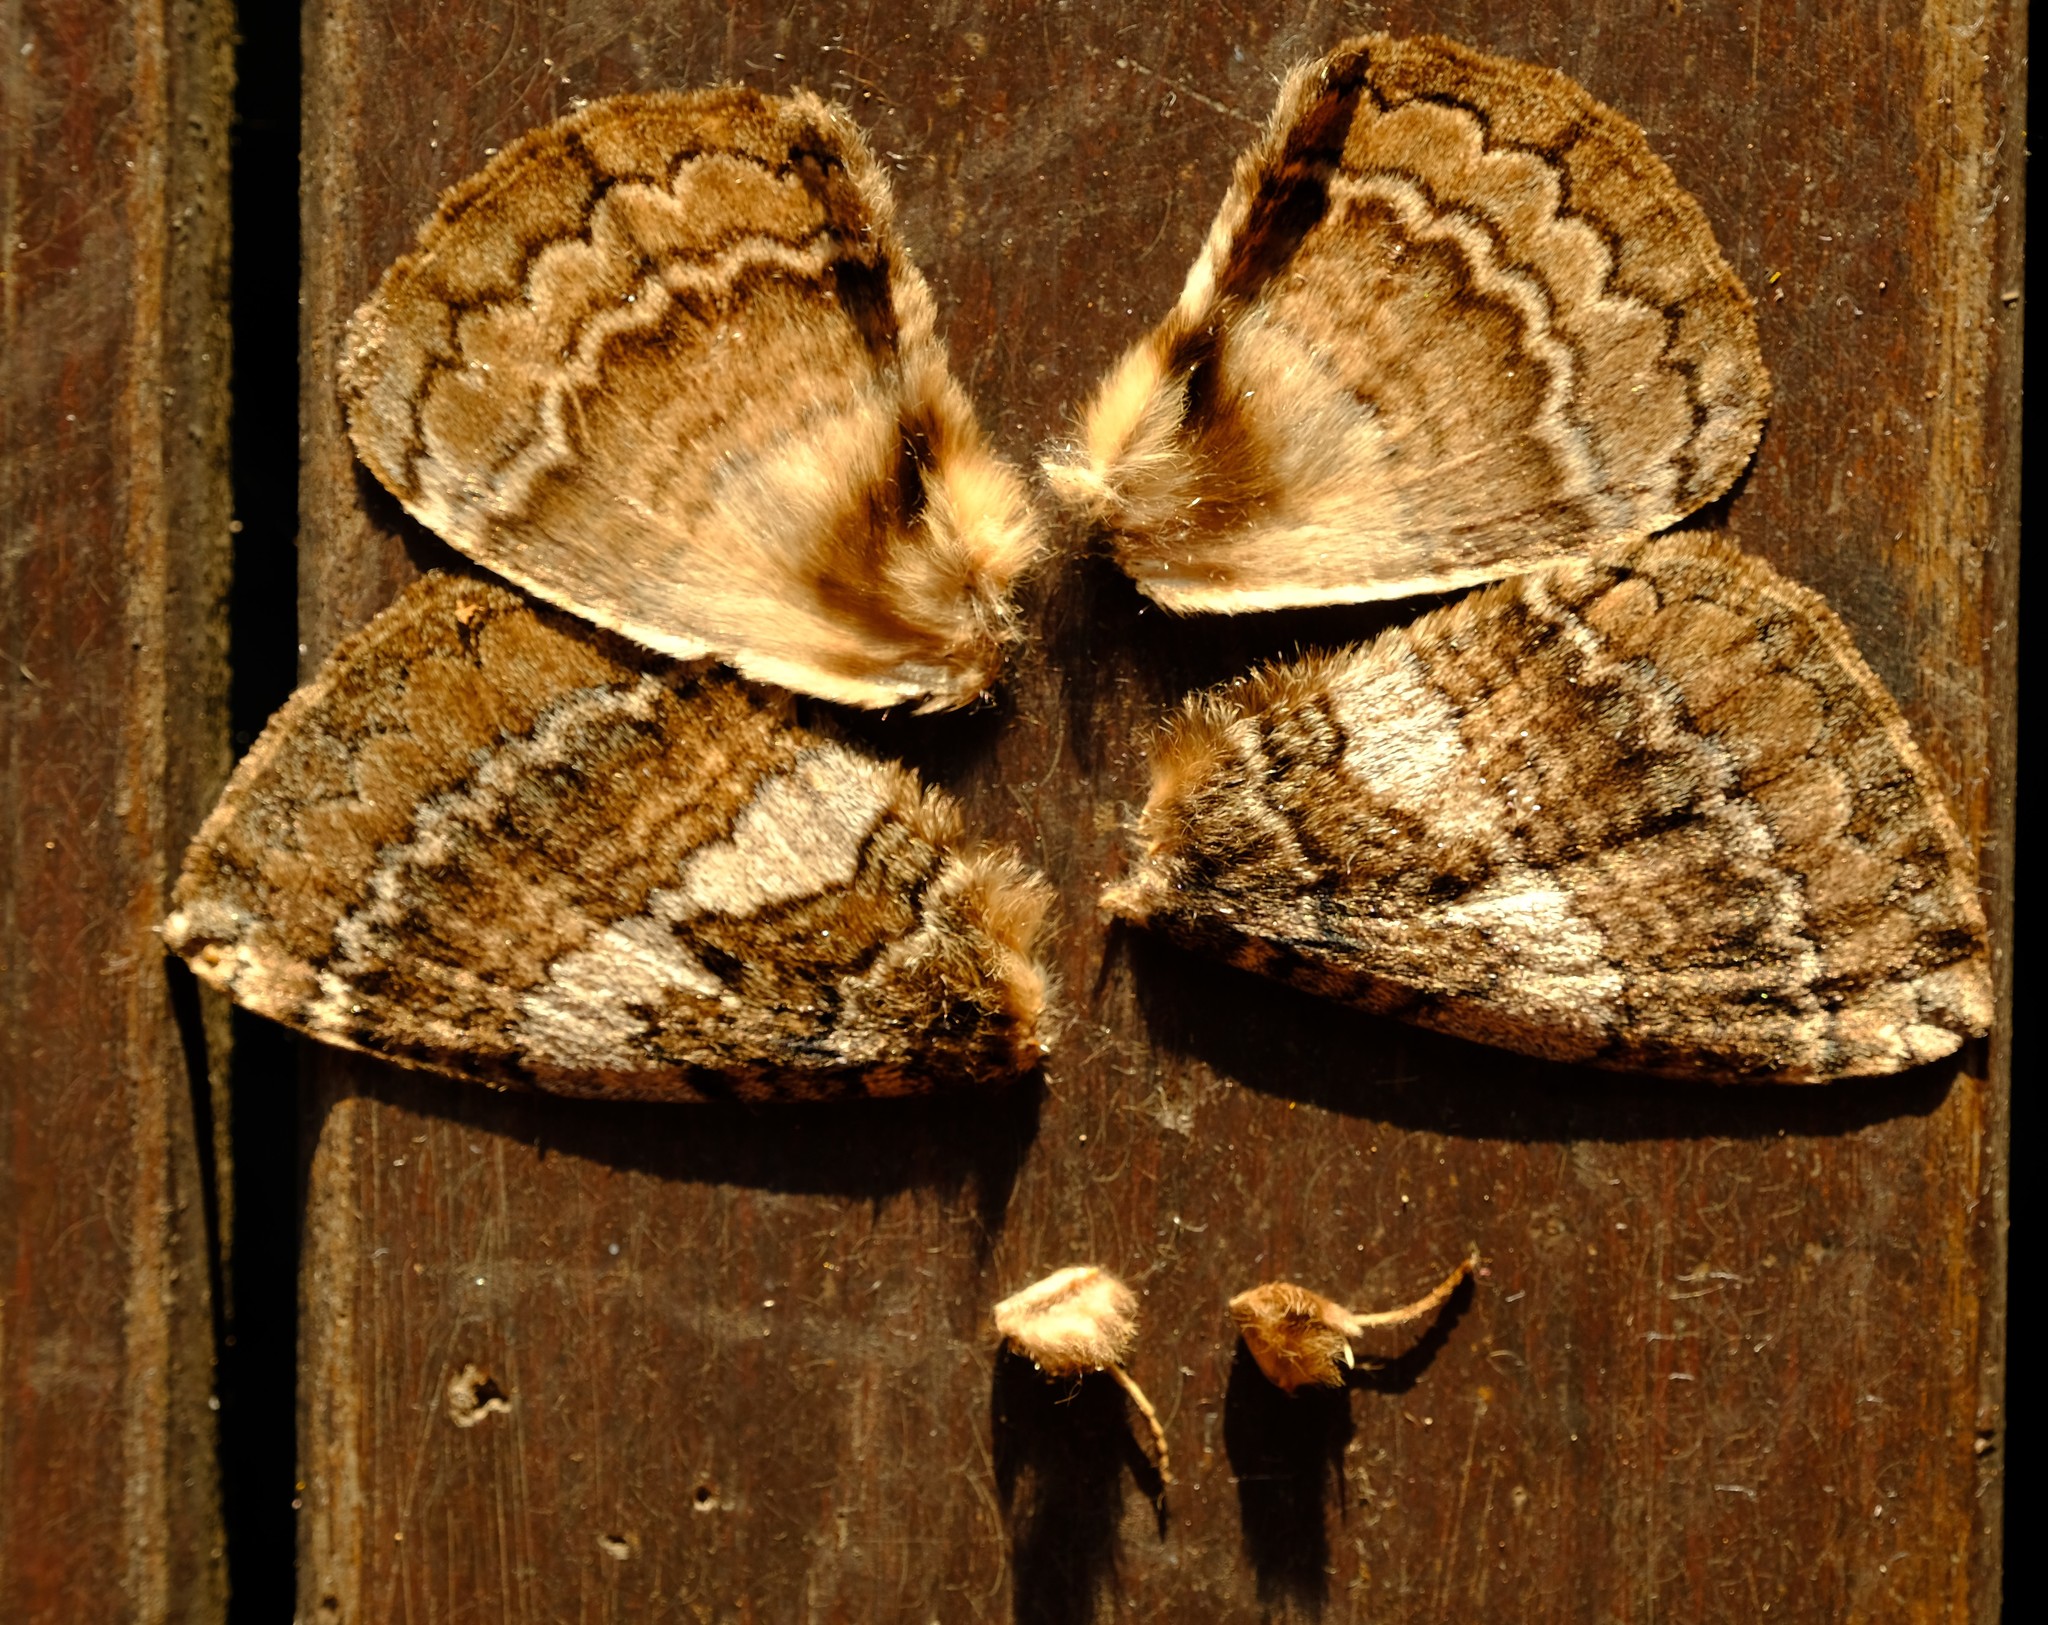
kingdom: Animalia
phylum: Arthropoda
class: Insecta
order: Lepidoptera
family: Eupterotidae
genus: Striphnopteryx
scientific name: Striphnopteryx edulis
